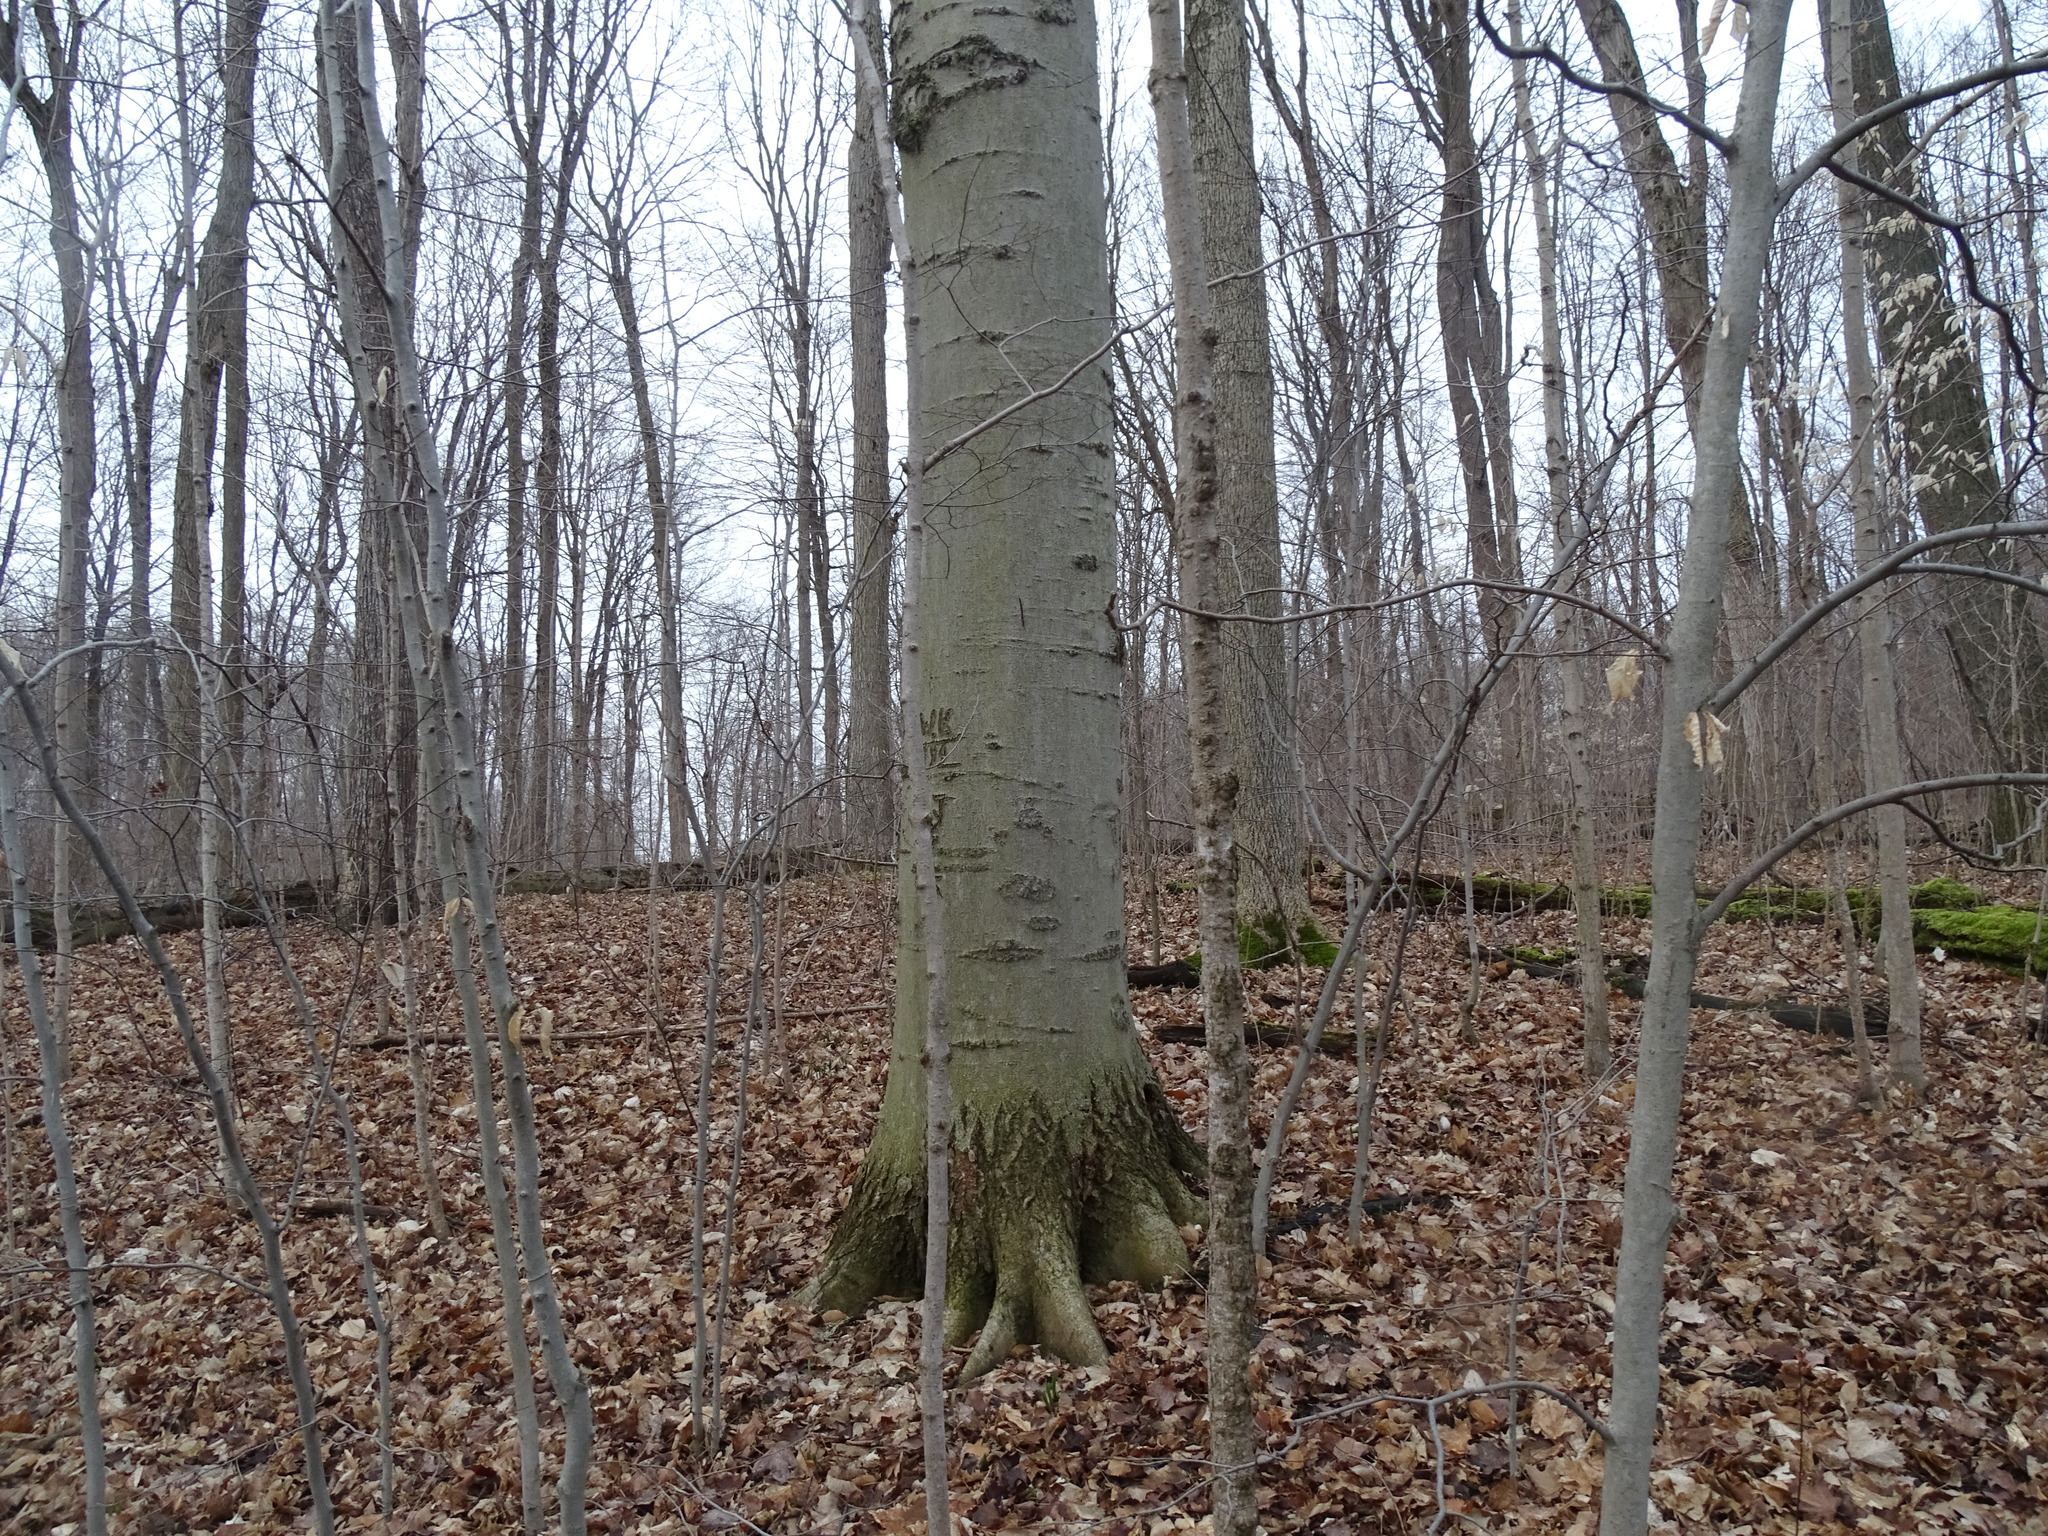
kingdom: Plantae
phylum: Tracheophyta
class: Magnoliopsida
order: Fagales
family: Fagaceae
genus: Fagus
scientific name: Fagus grandifolia
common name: American beech
